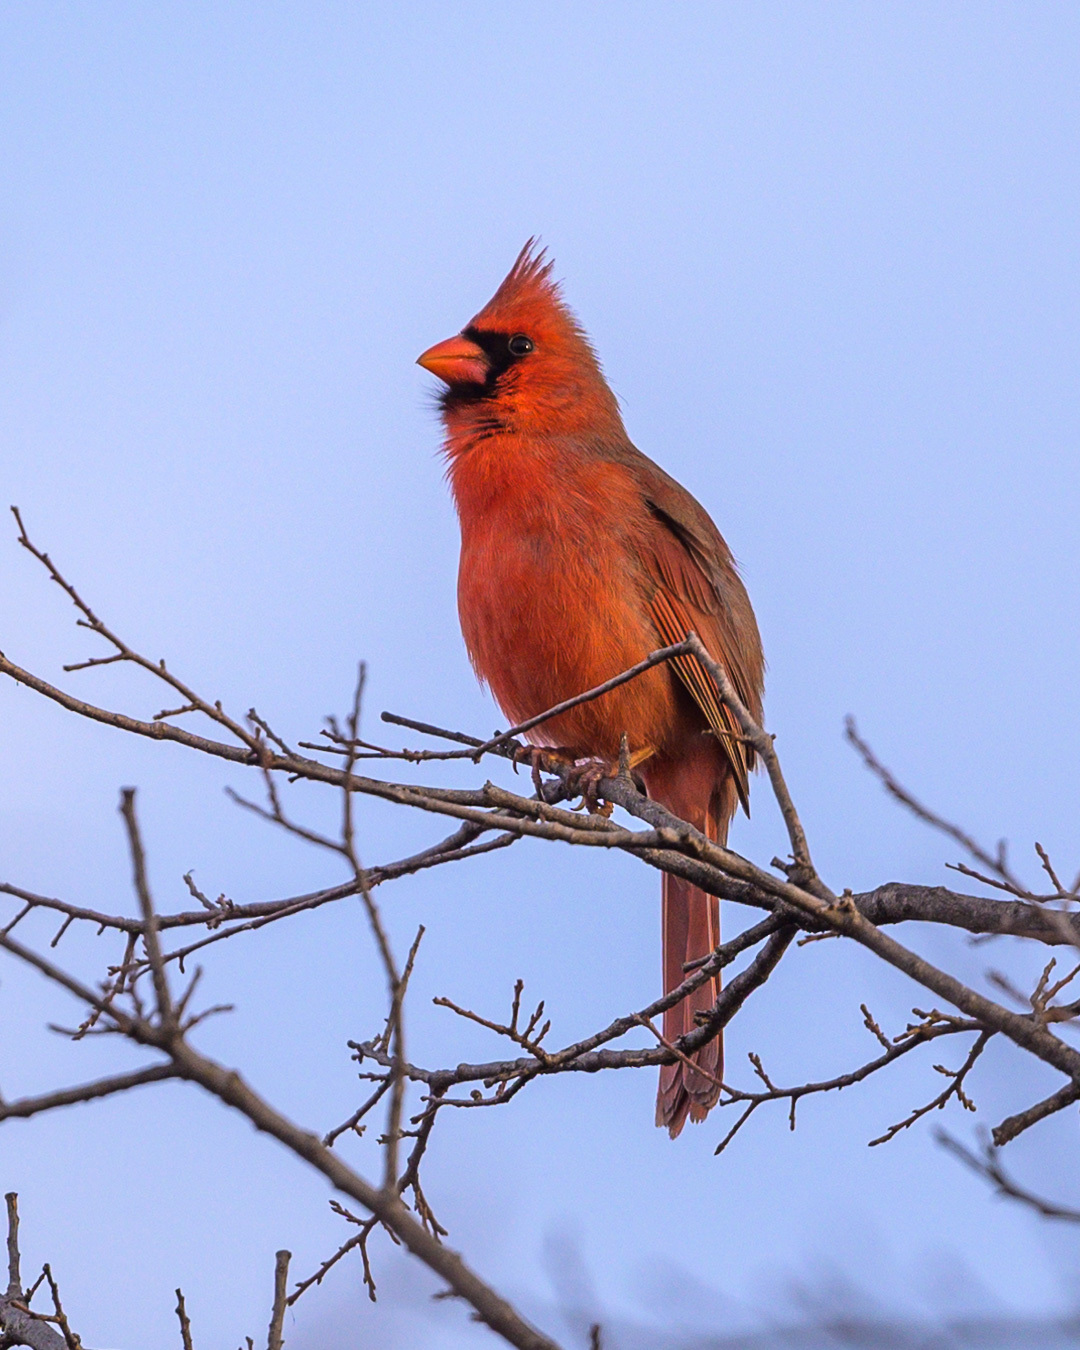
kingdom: Animalia
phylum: Chordata
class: Aves
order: Passeriformes
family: Cardinalidae
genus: Cardinalis
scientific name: Cardinalis cardinalis
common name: Northern cardinal
